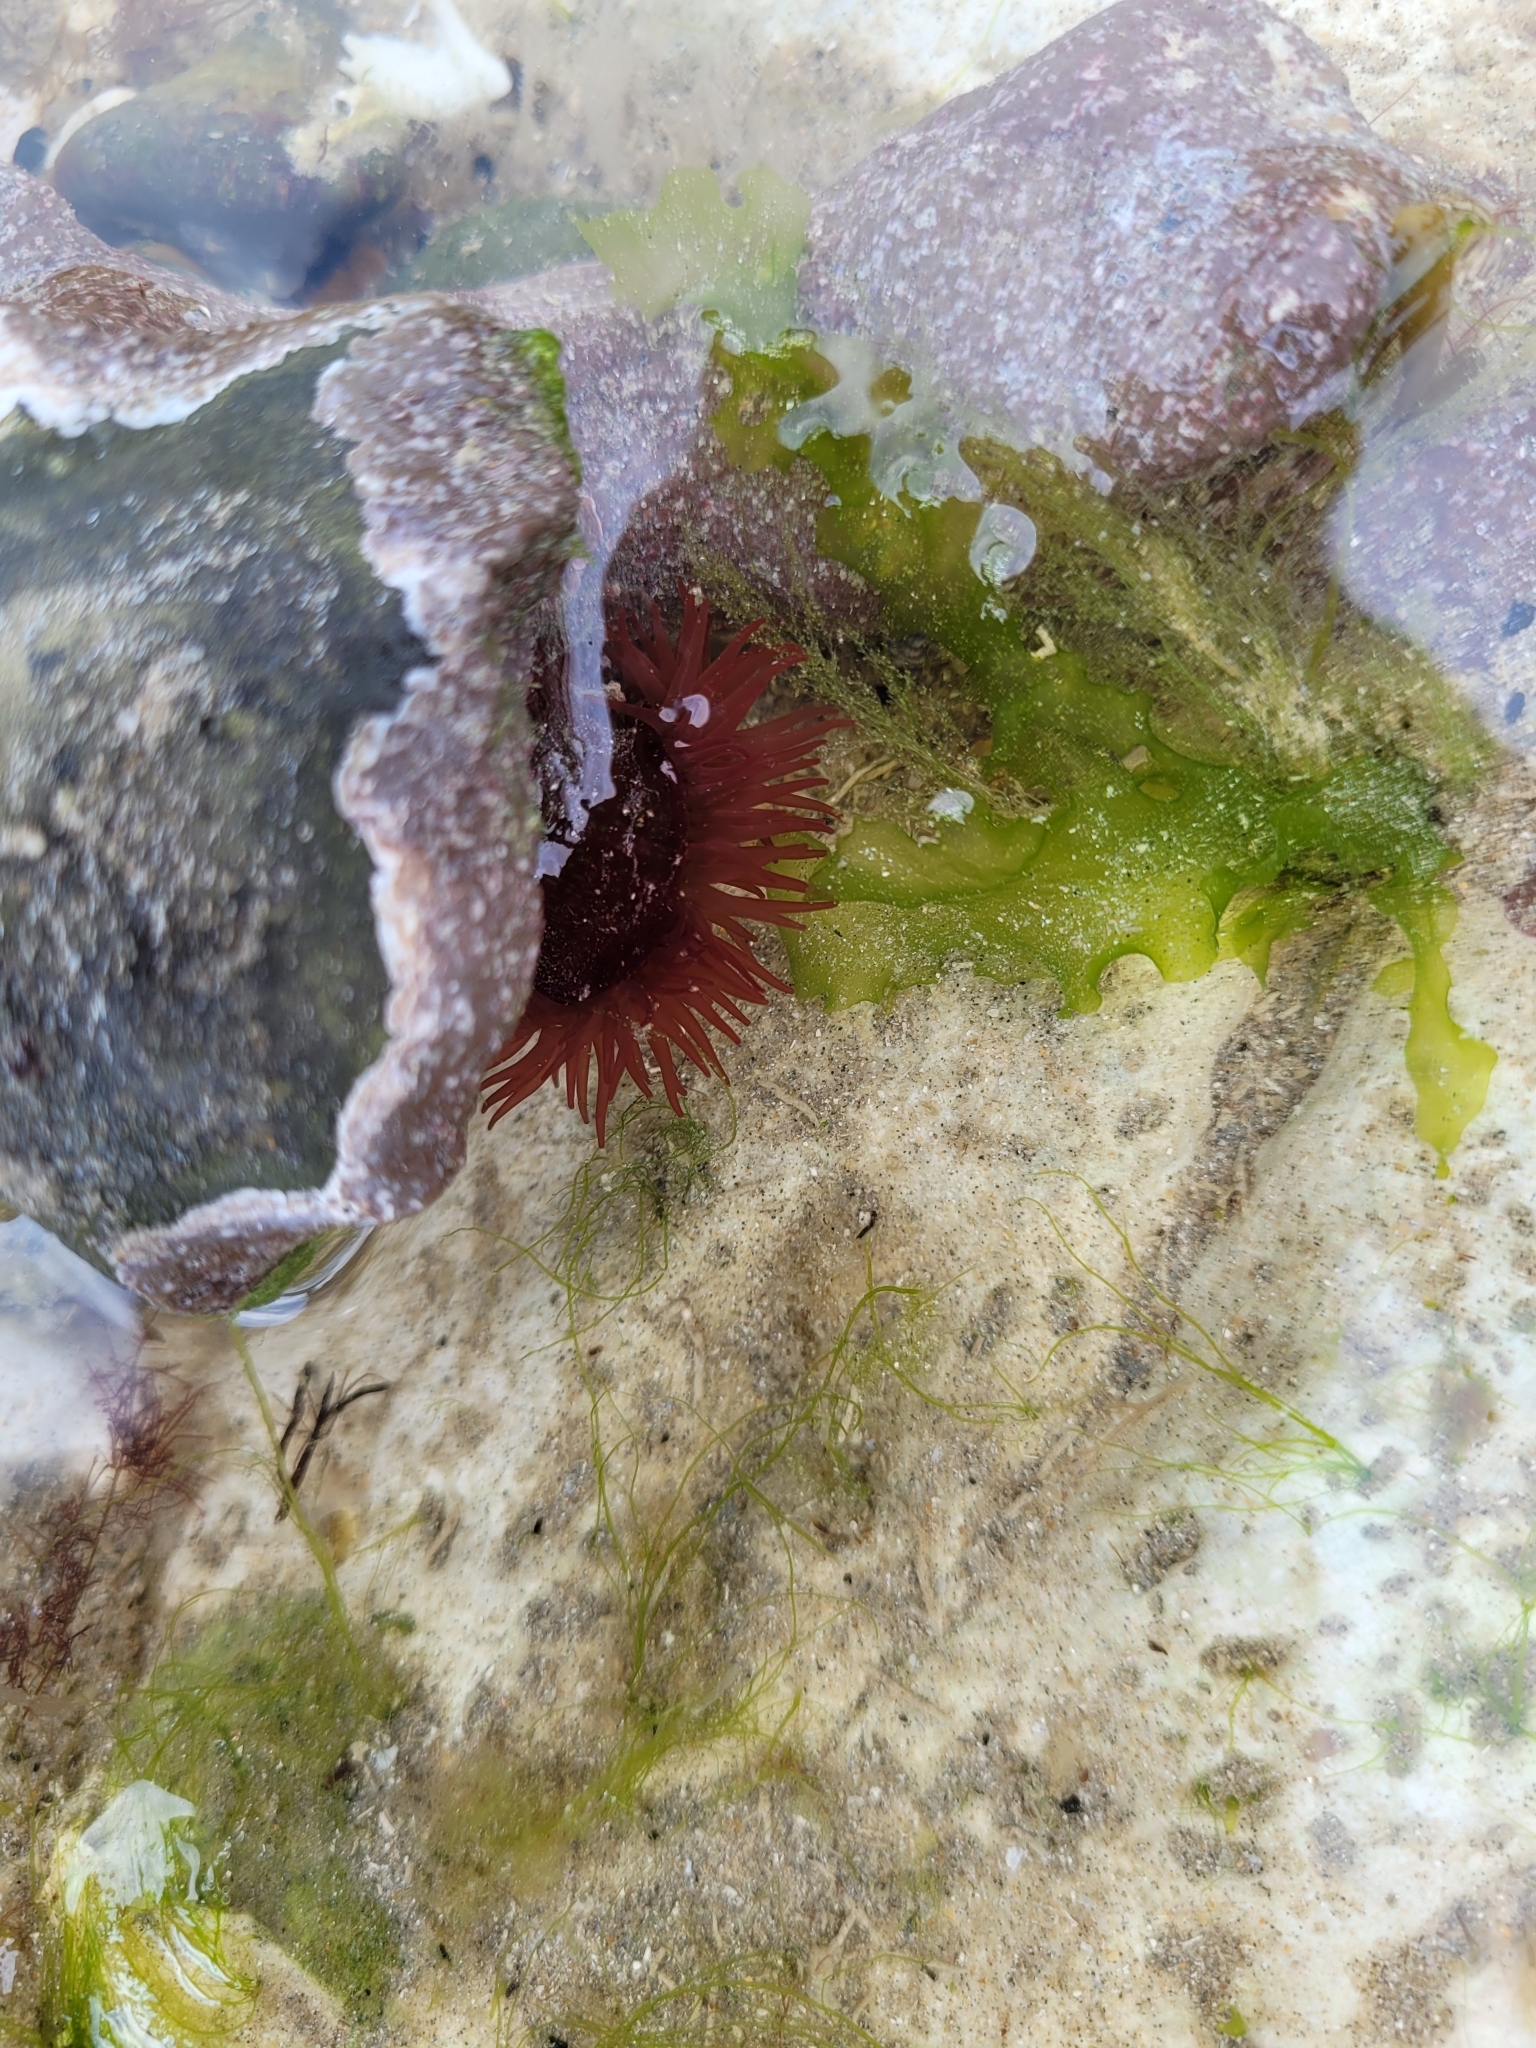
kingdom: Animalia
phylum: Cnidaria
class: Anthozoa
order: Actiniaria
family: Actiniidae
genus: Actinia
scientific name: Actinia equina
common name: Beadlet anemone
